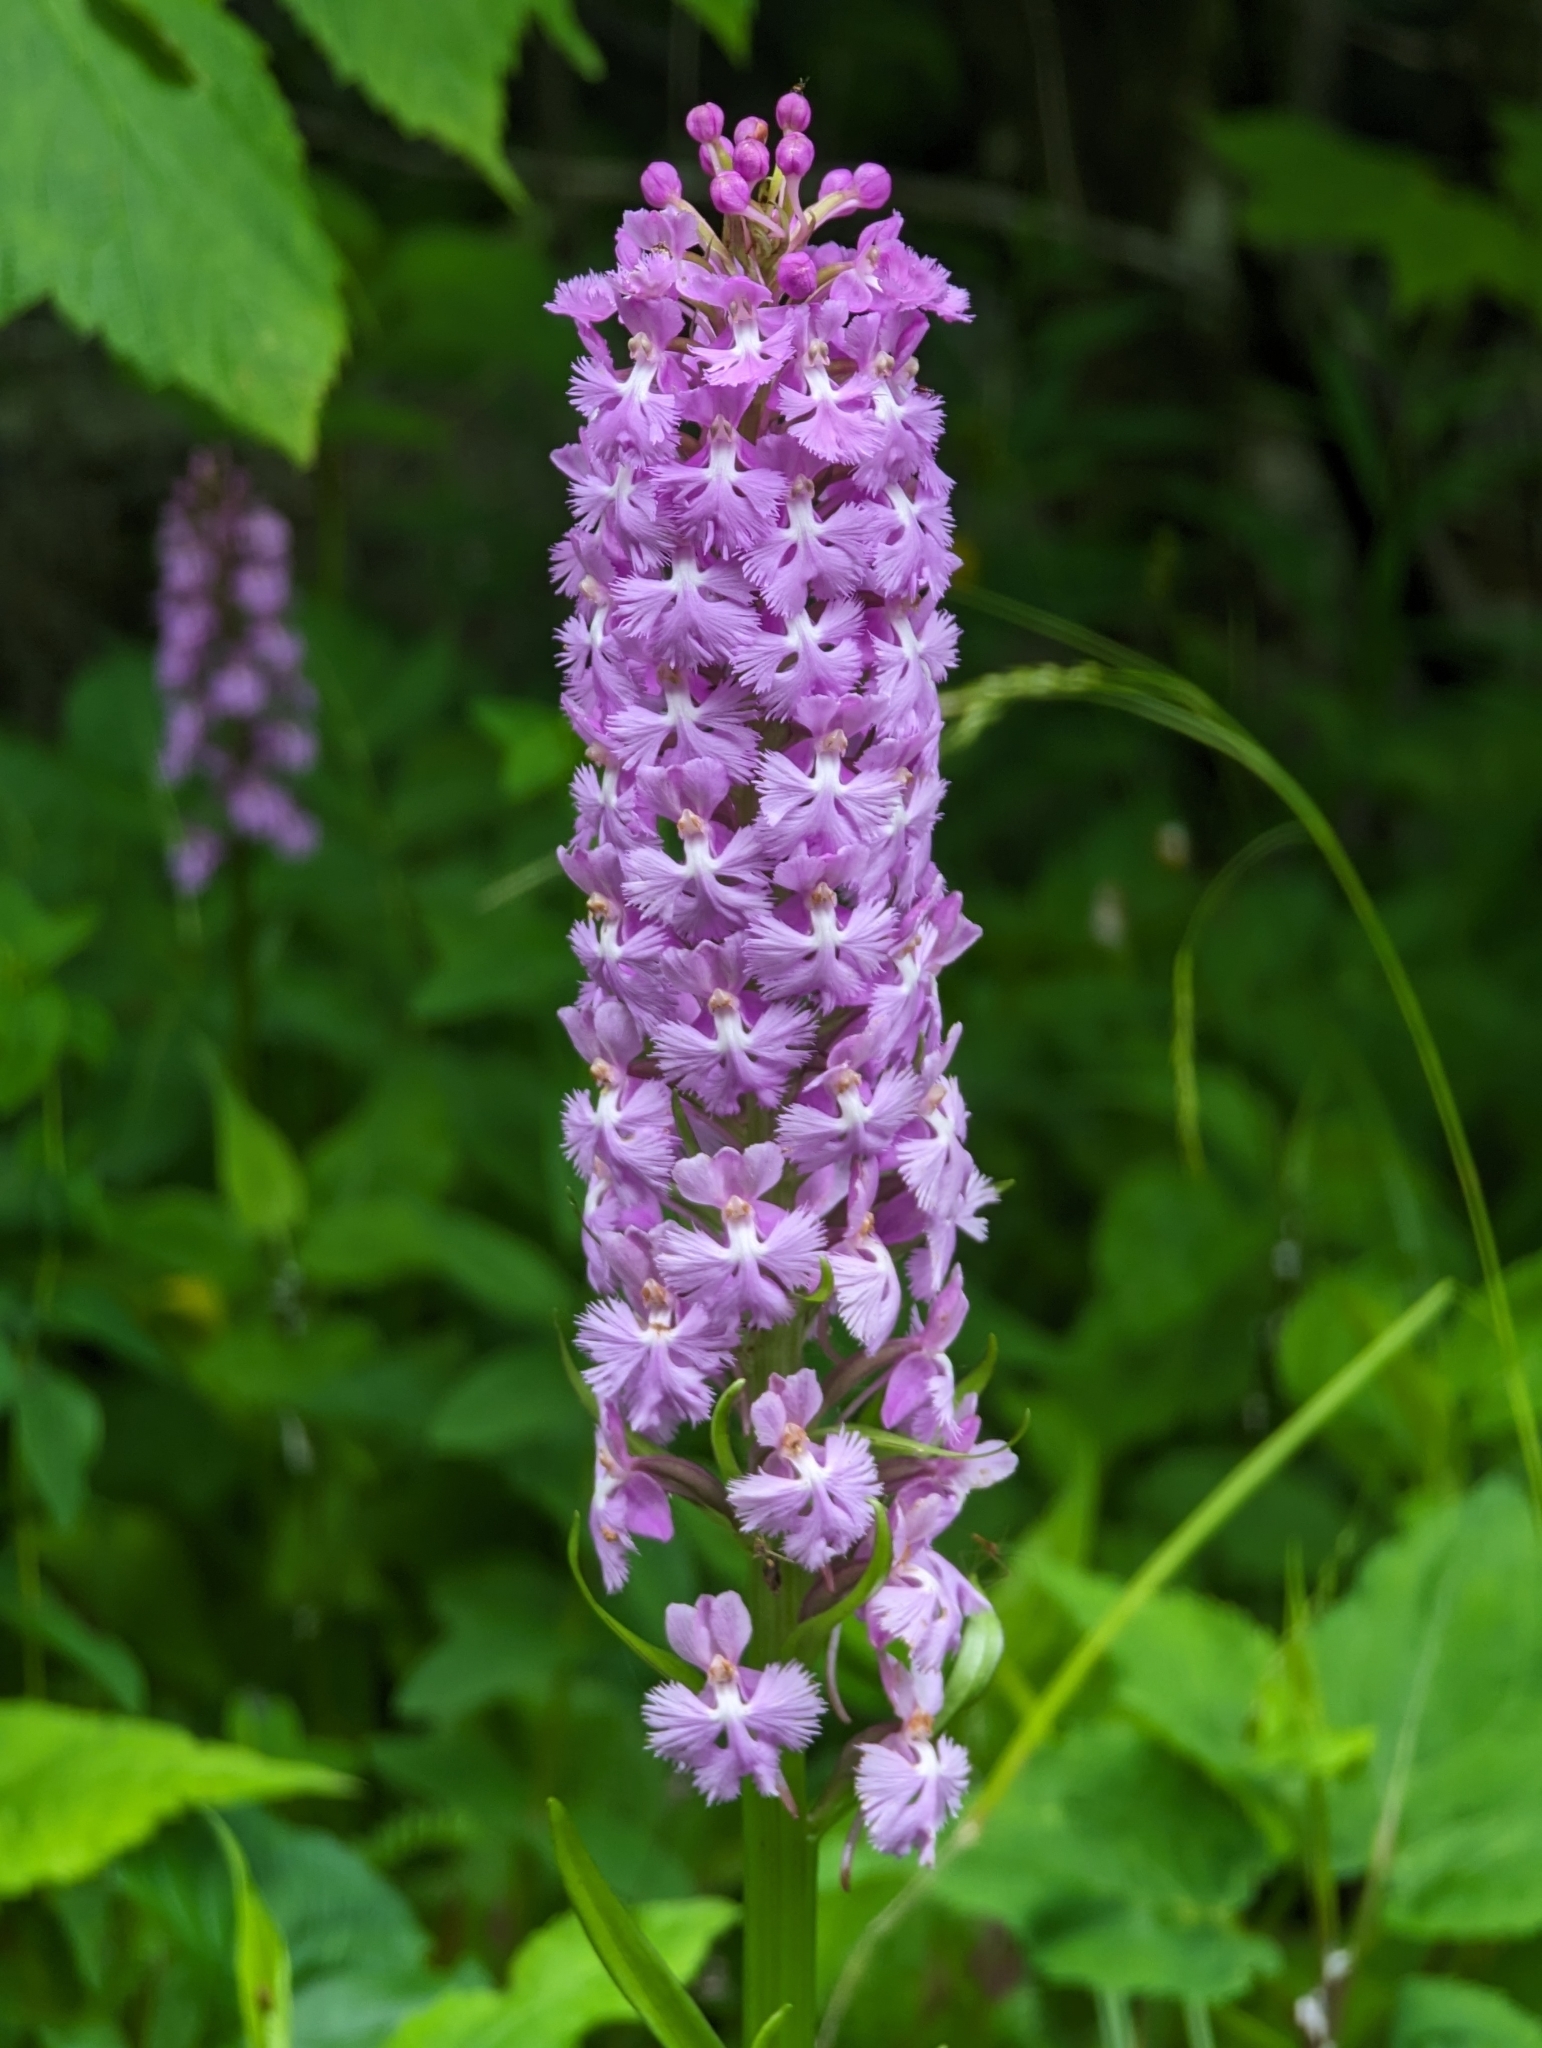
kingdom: Plantae
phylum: Tracheophyta
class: Liliopsida
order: Asparagales
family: Orchidaceae
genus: Platanthera
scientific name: Platanthera psycodes
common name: Lesser purple fringed orchid
